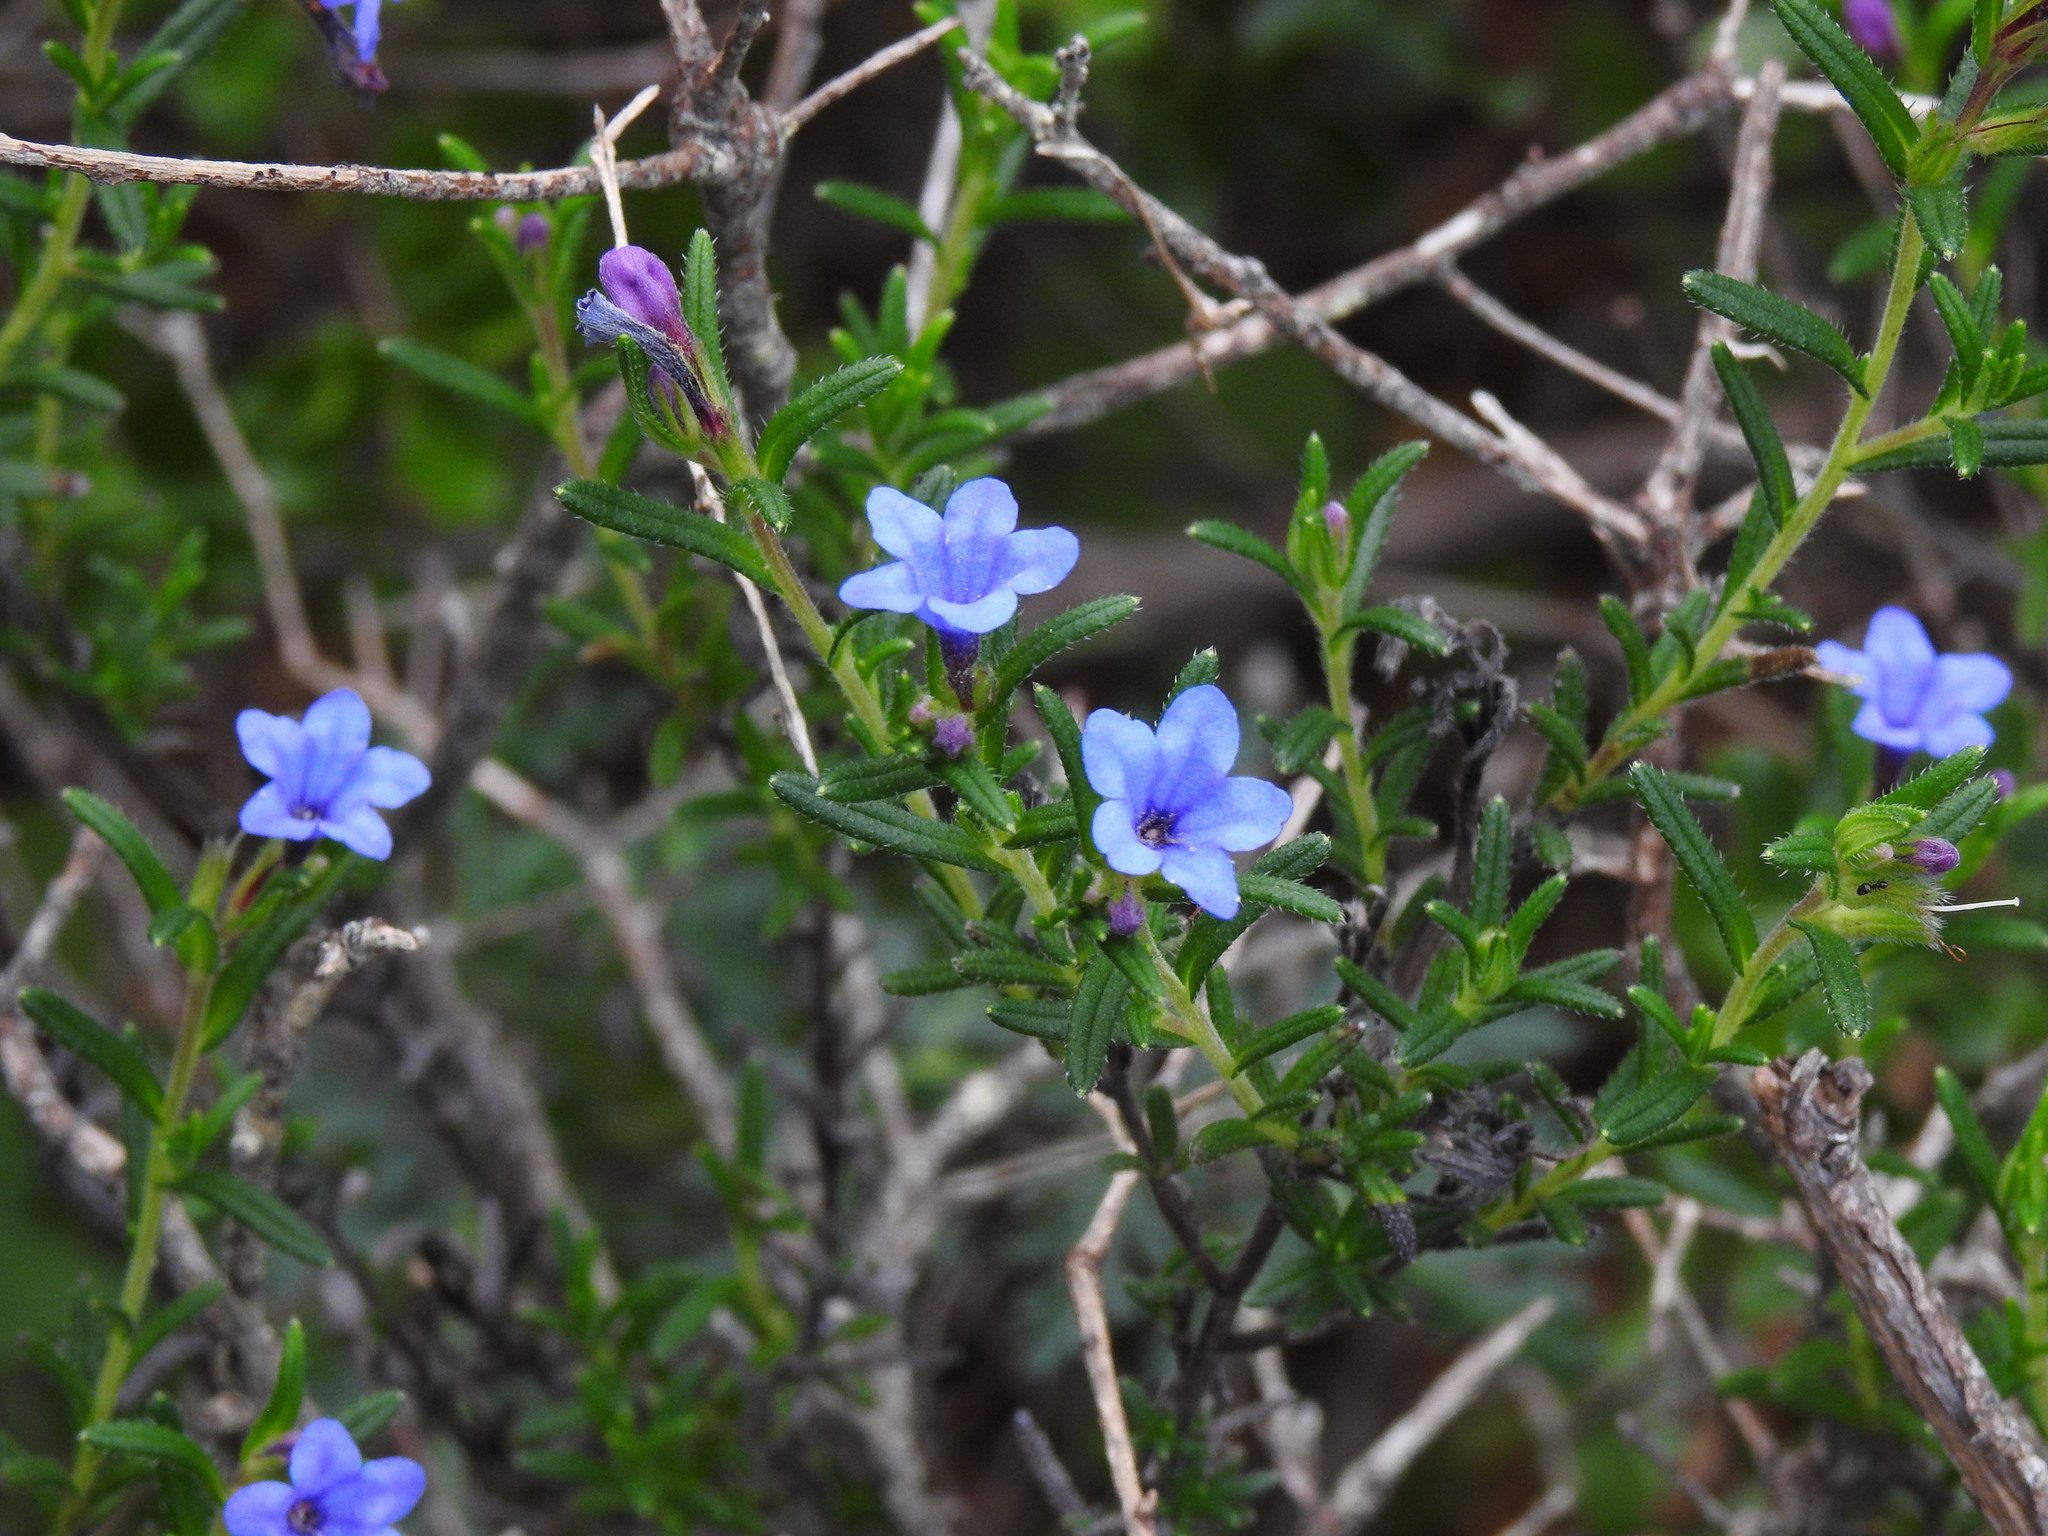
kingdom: Plantae
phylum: Tracheophyta
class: Magnoliopsida
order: Boraginales
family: Boraginaceae
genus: Glandora
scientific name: Glandora prostrata
